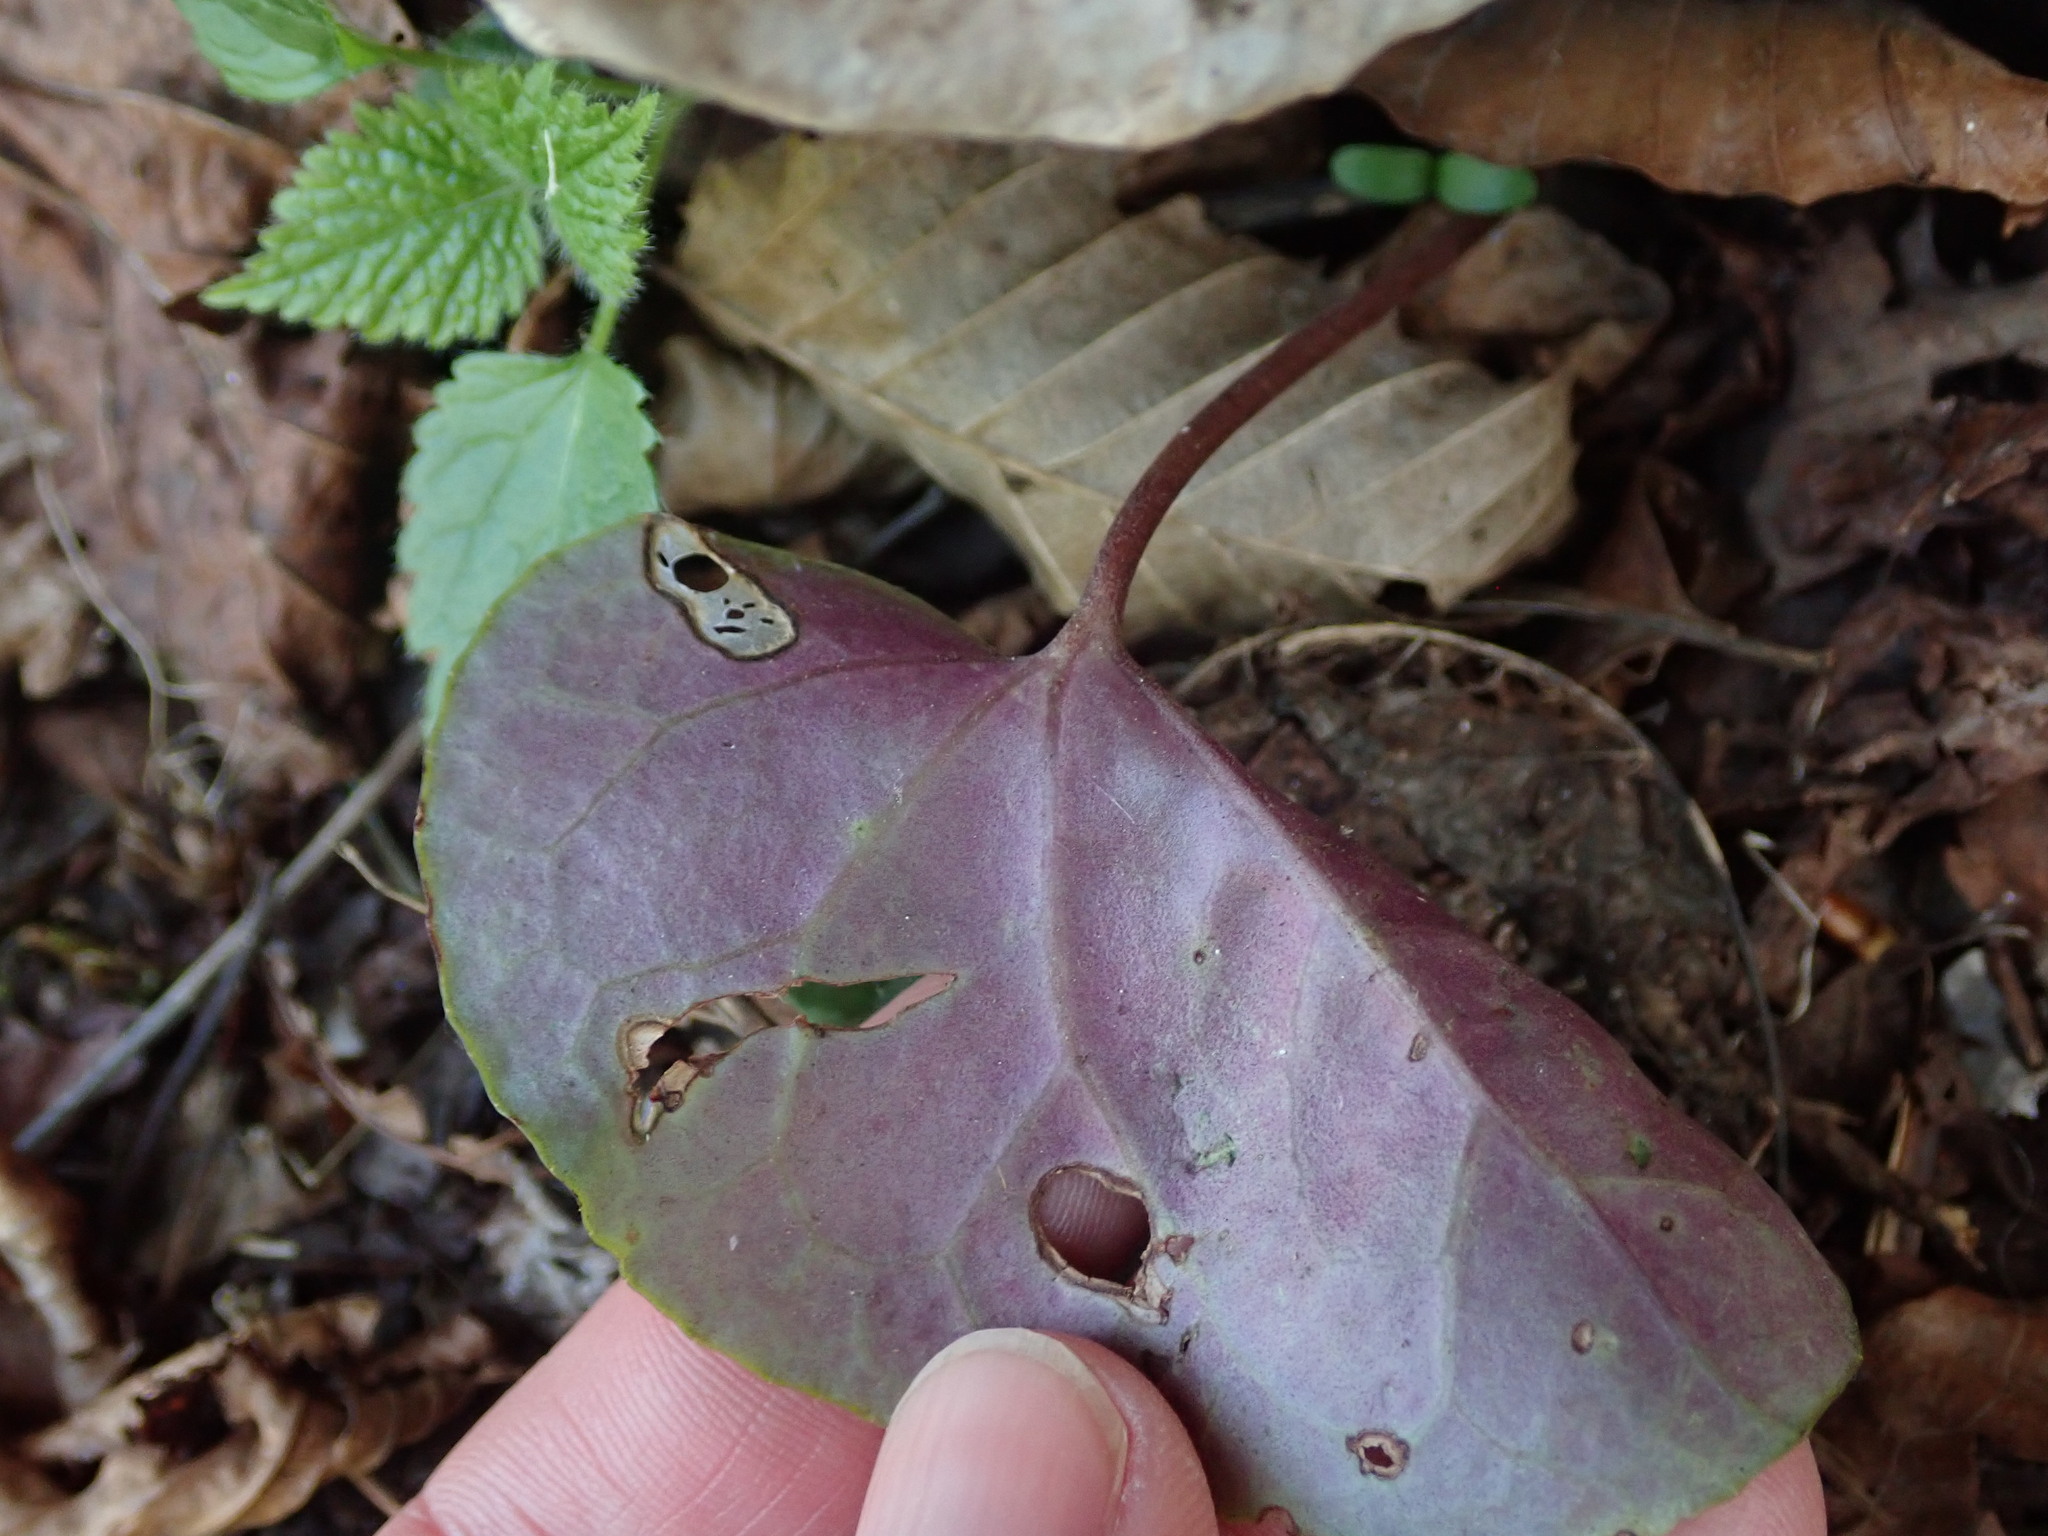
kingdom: Plantae
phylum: Tracheophyta
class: Magnoliopsida
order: Ericales
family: Primulaceae
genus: Cyclamen
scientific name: Cyclamen purpurascens
